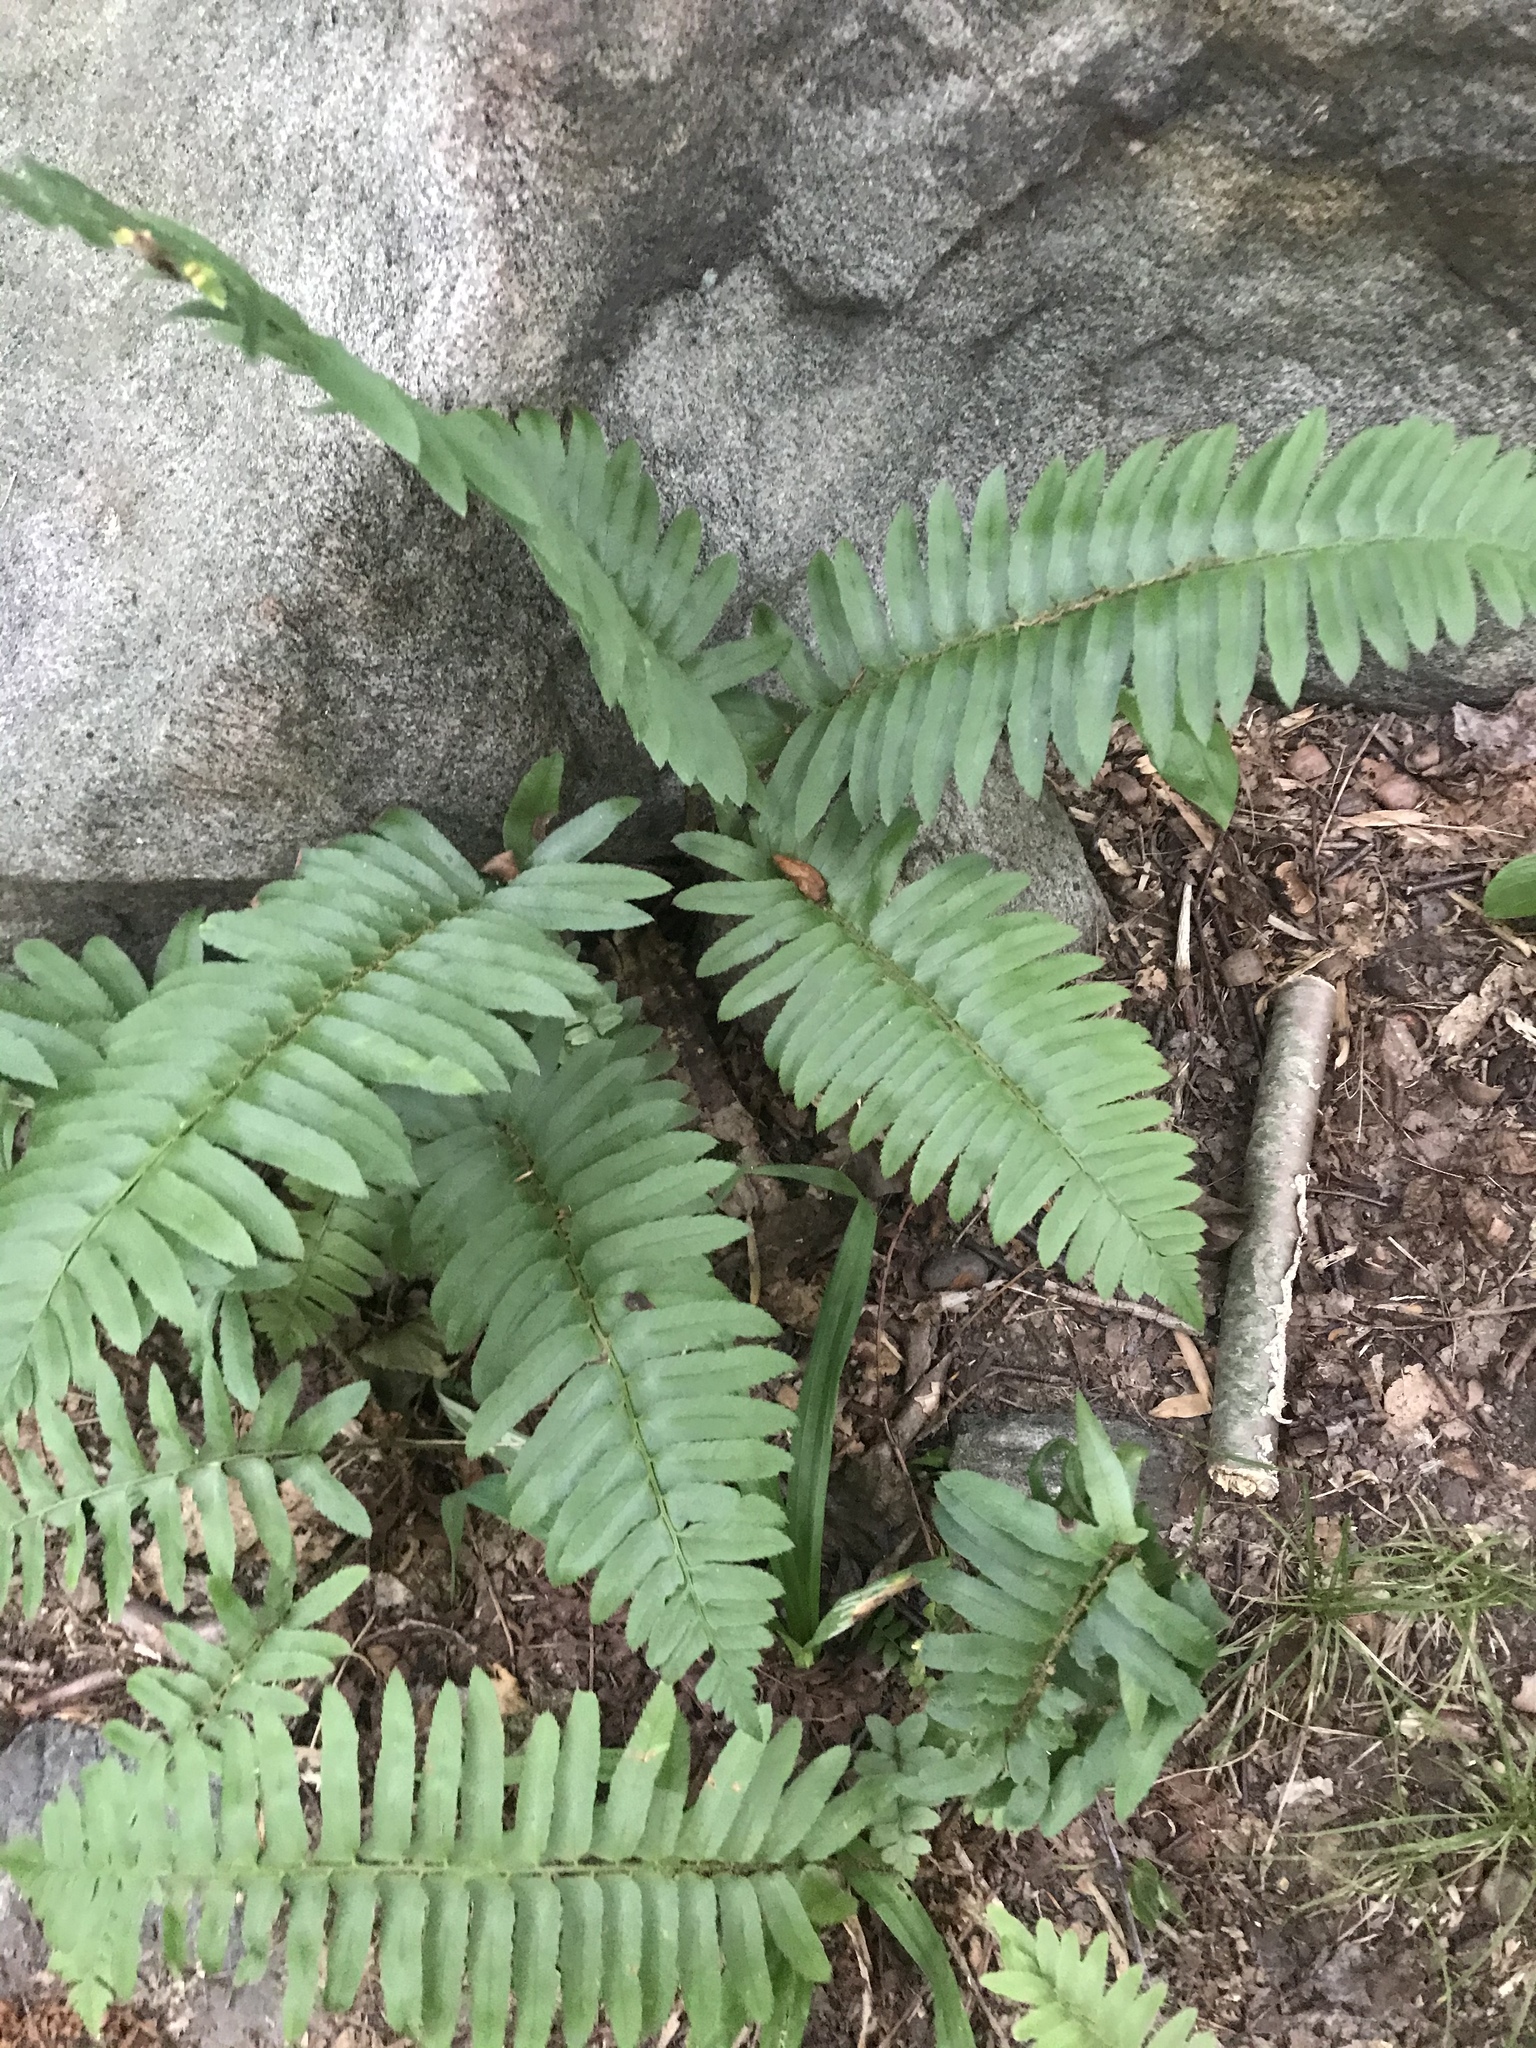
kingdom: Plantae
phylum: Tracheophyta
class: Polypodiopsida
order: Polypodiales
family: Dryopteridaceae
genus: Polystichum
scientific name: Polystichum acrostichoides
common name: Christmas fern
